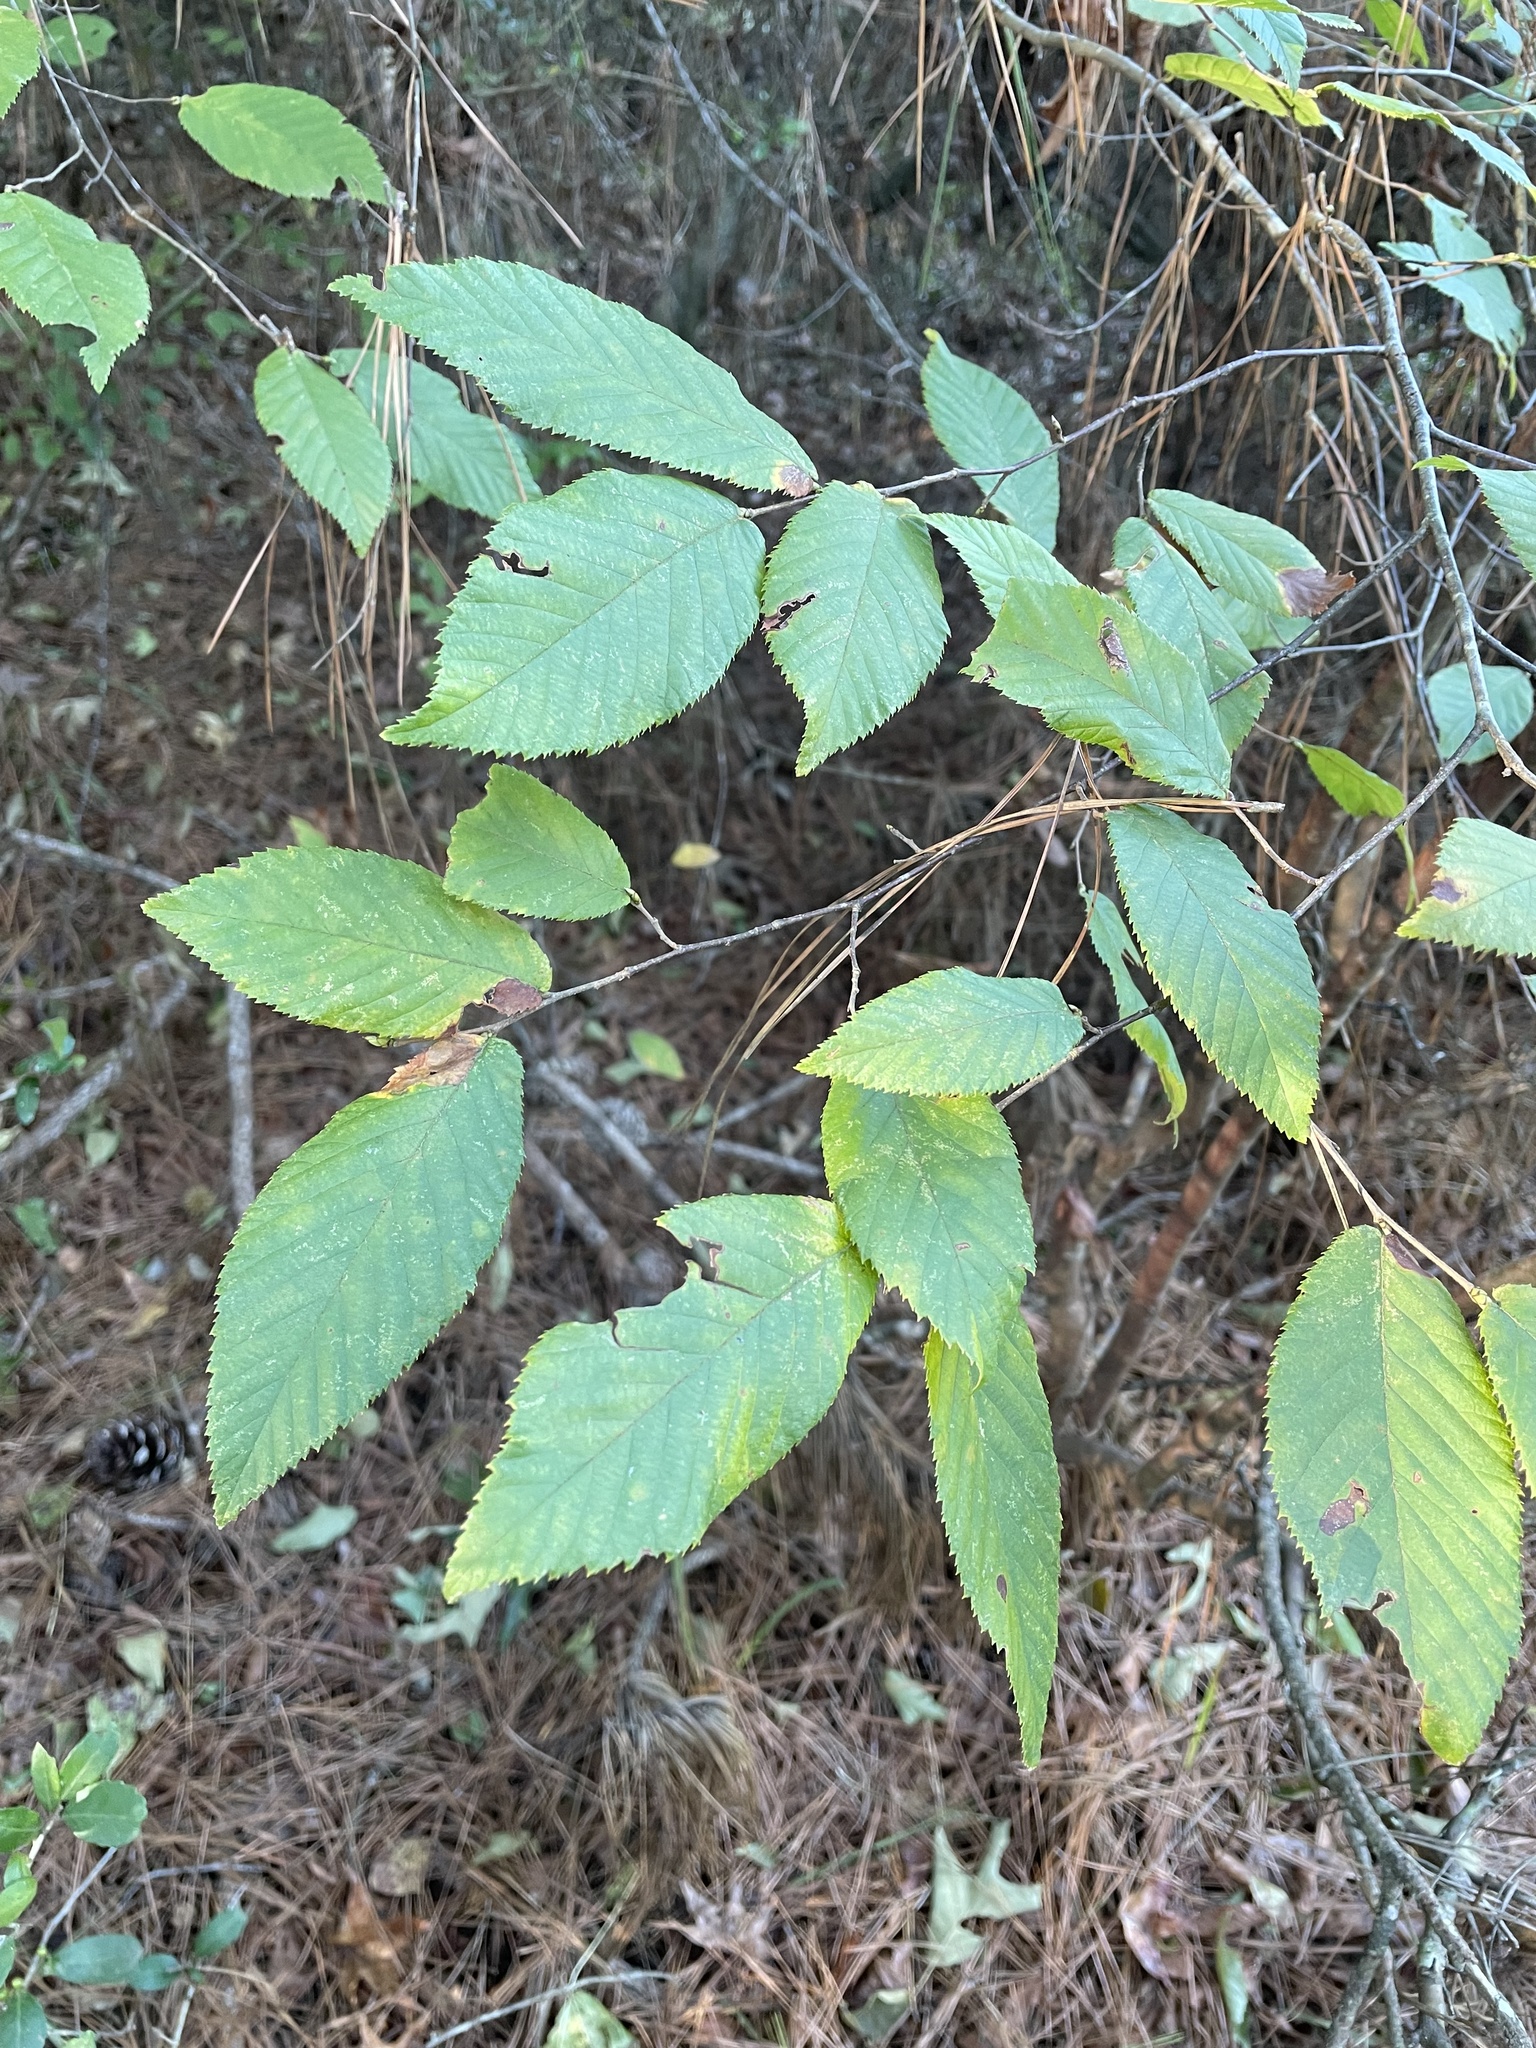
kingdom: Plantae
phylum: Tracheophyta
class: Magnoliopsida
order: Fagales
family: Betulaceae
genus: Ostrya
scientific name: Ostrya virginiana
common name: Ironwood
